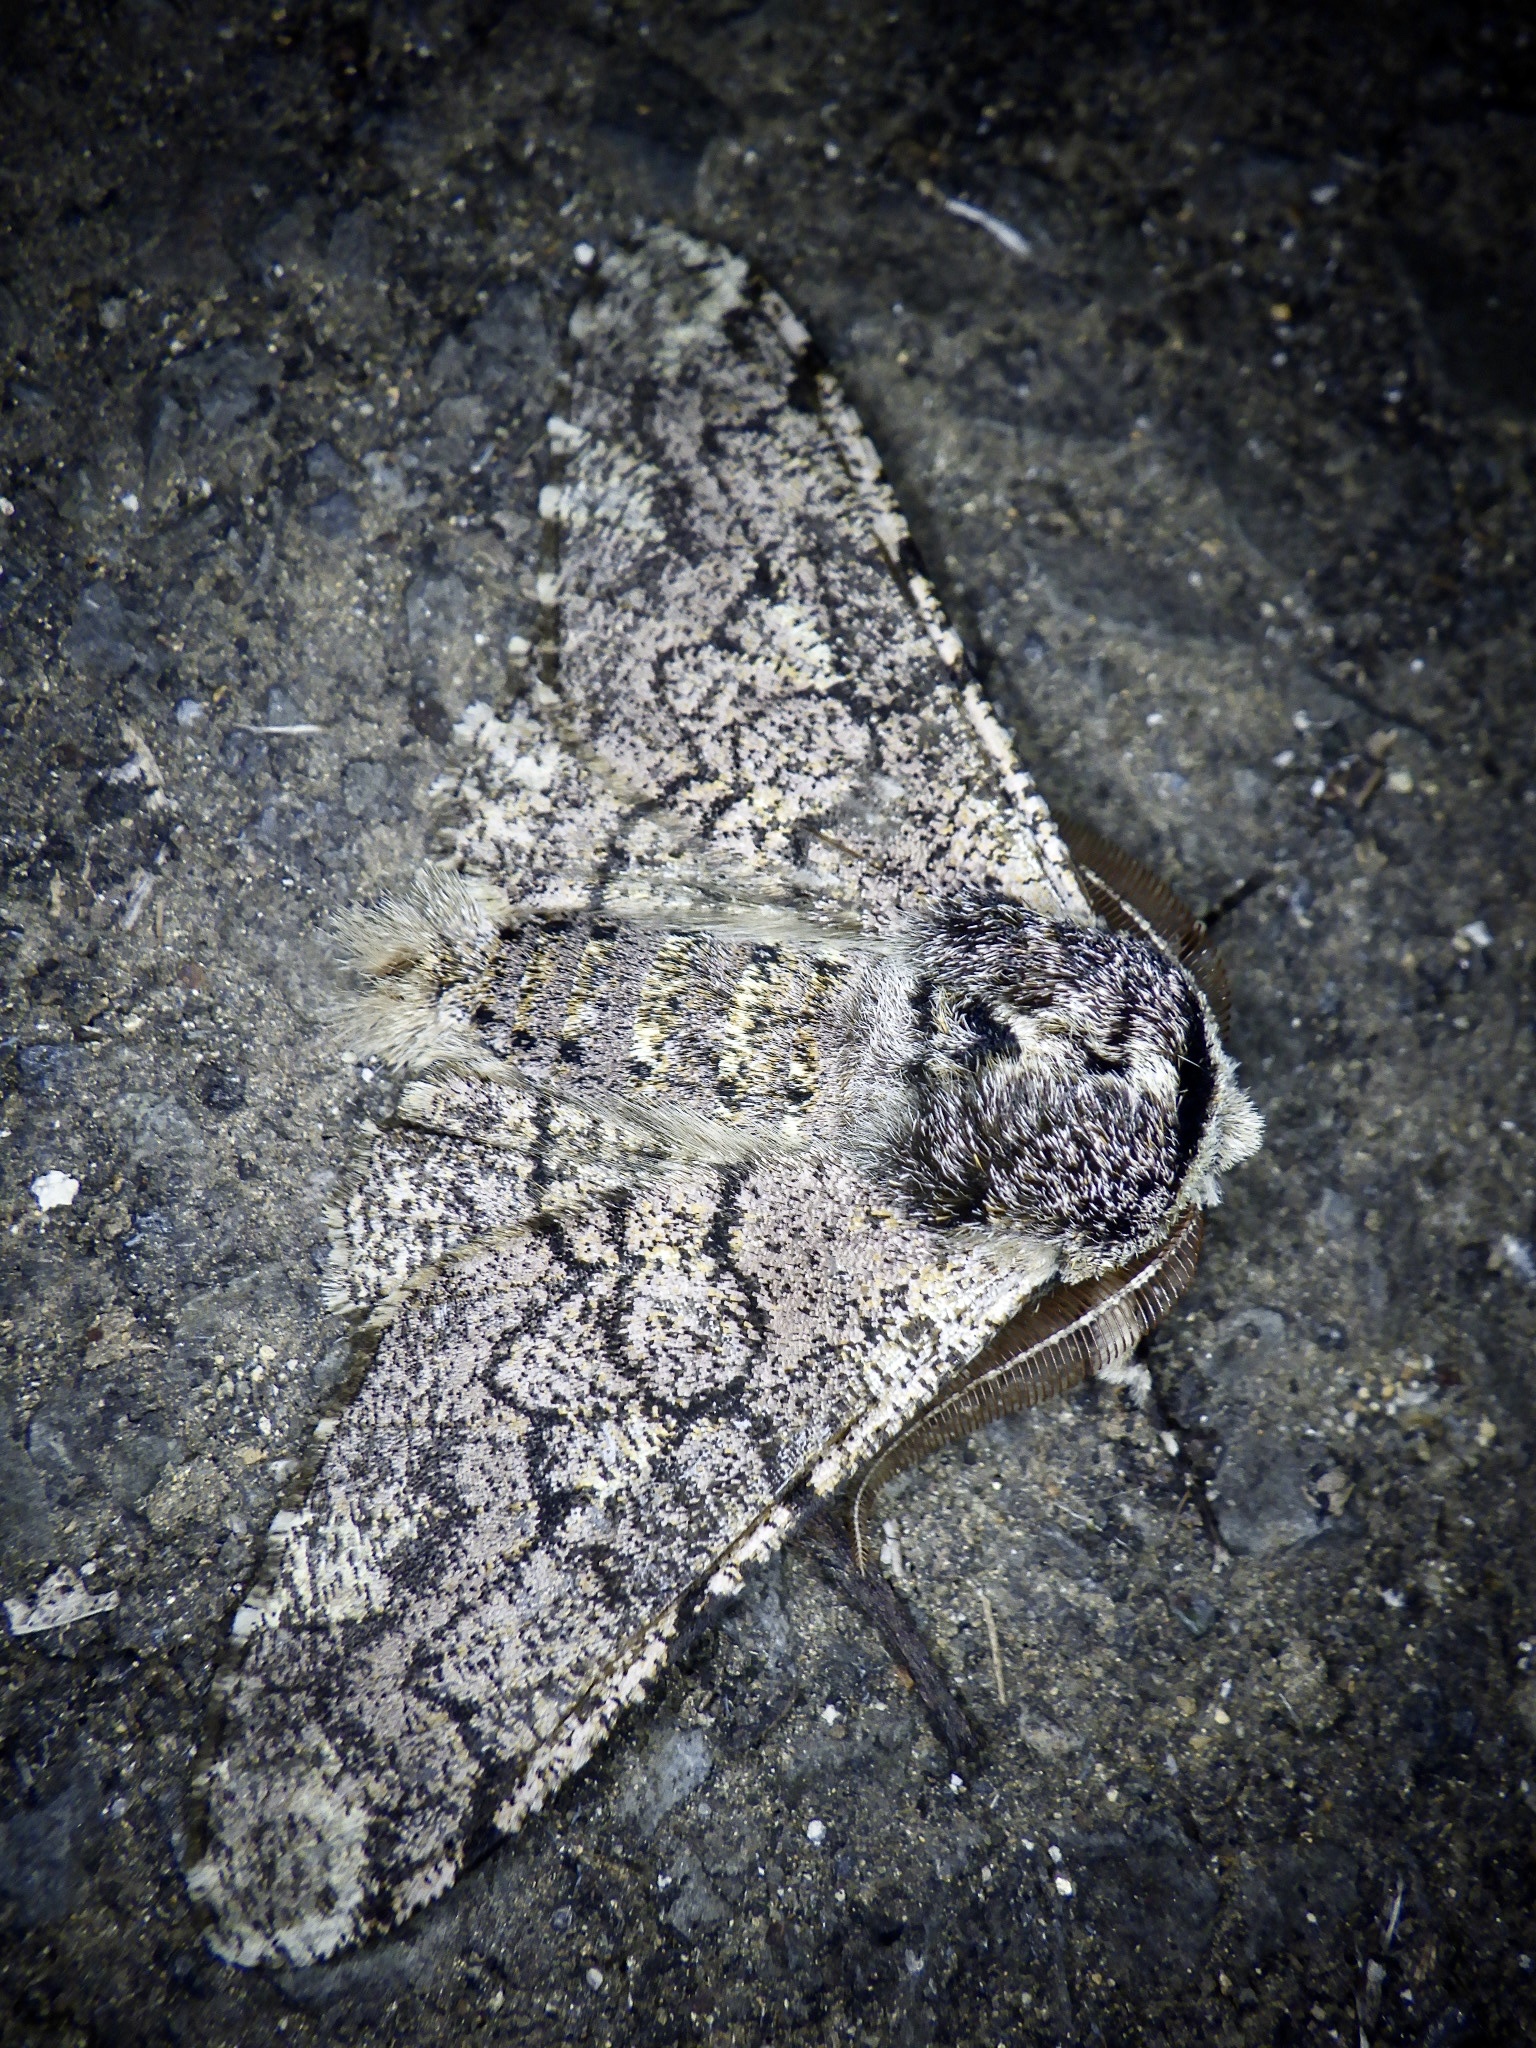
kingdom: Animalia
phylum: Arthropoda
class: Insecta
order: Lepidoptera
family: Geometridae
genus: Biston
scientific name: Biston robustum
